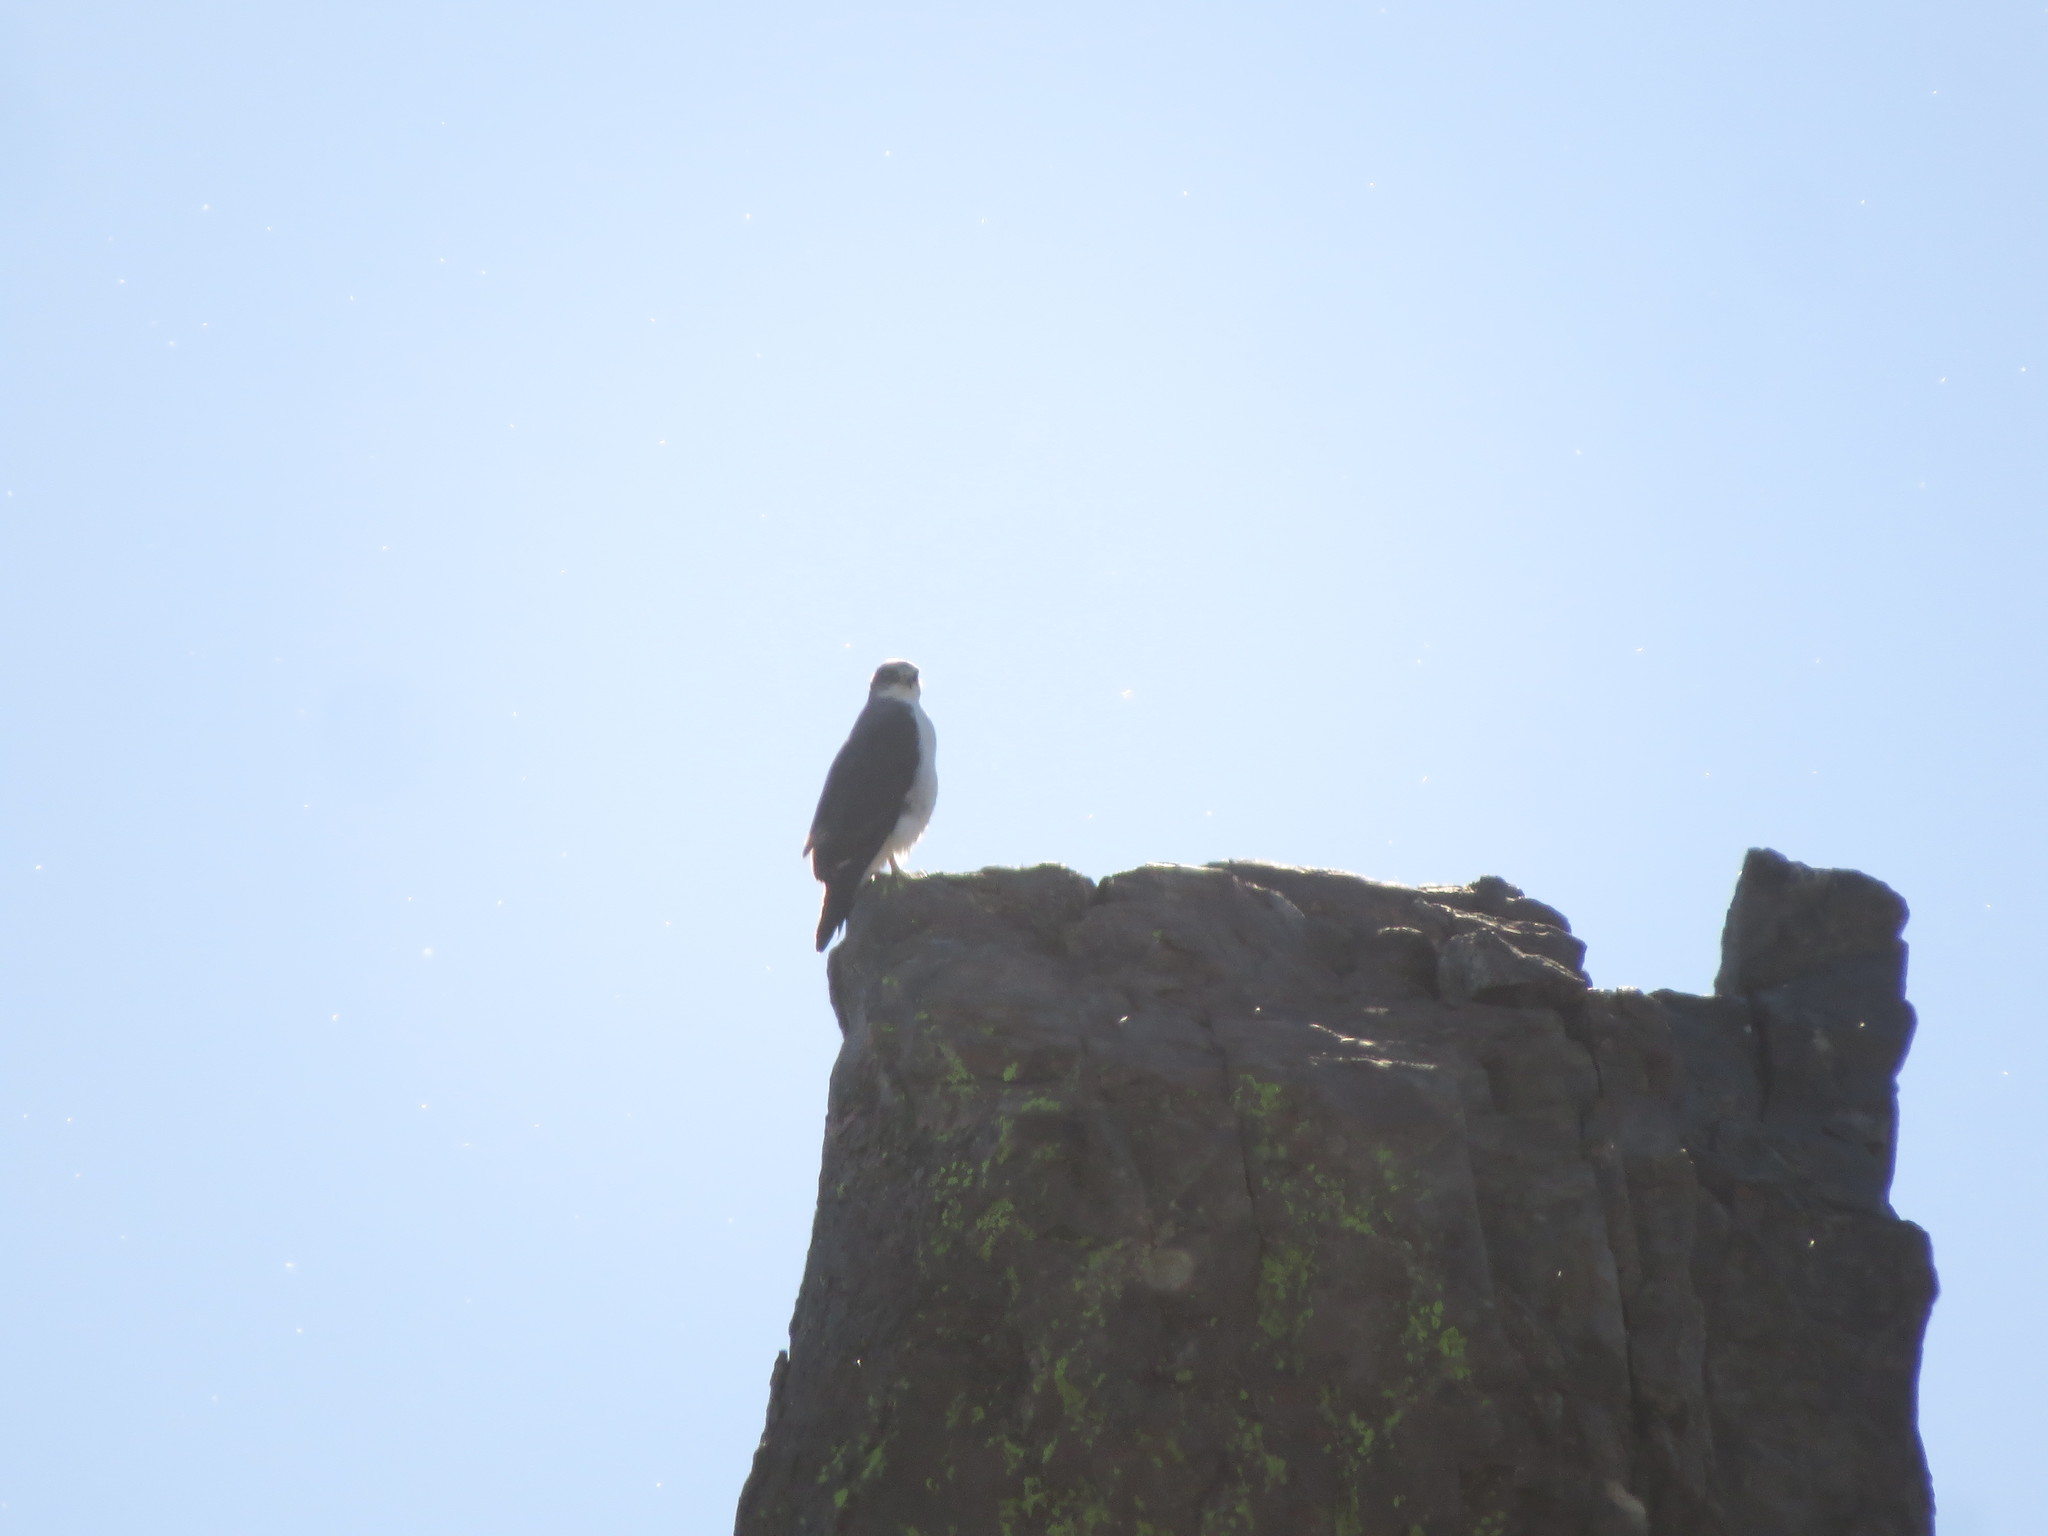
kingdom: Animalia
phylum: Chordata
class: Aves
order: Accipitriformes
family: Accipitridae
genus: Buteo
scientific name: Buteo polyosoma
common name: Variable hawk
